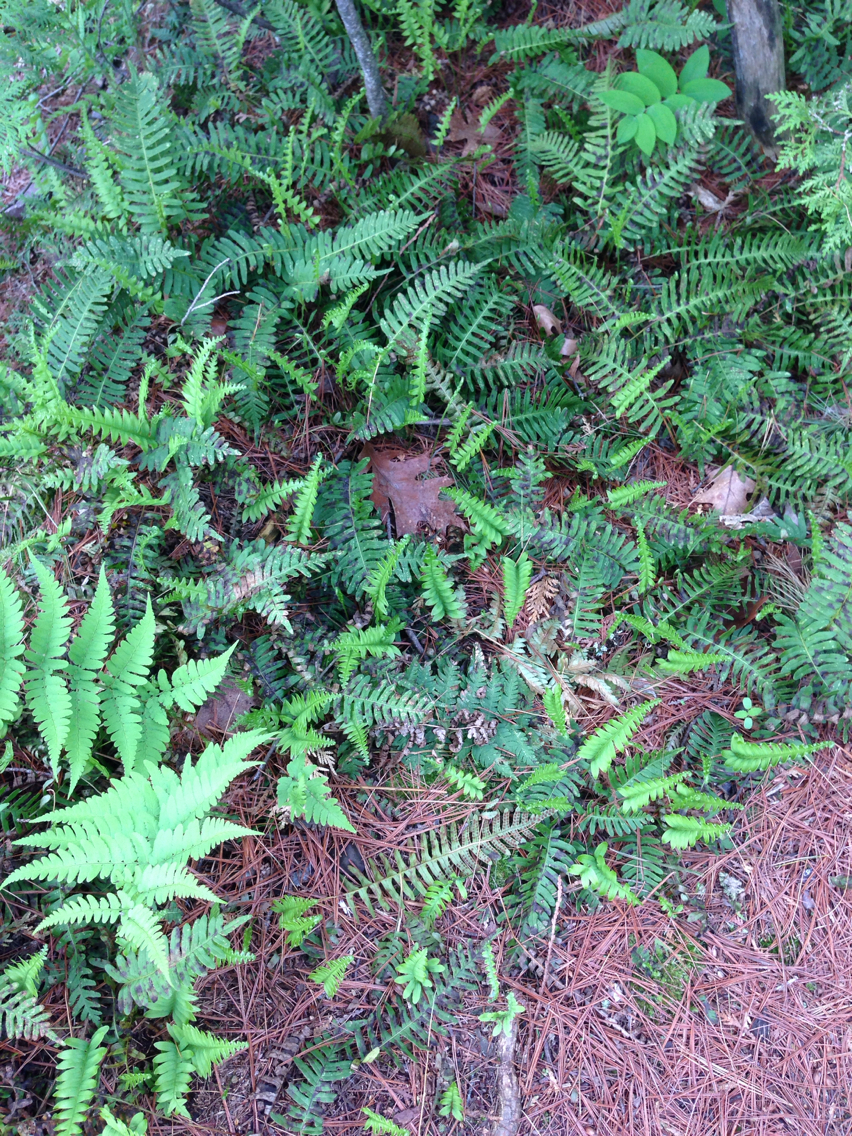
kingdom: Plantae
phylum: Tracheophyta
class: Polypodiopsida
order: Polypodiales
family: Polypodiaceae
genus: Polypodium
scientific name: Polypodium virginianum
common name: American wall fern
